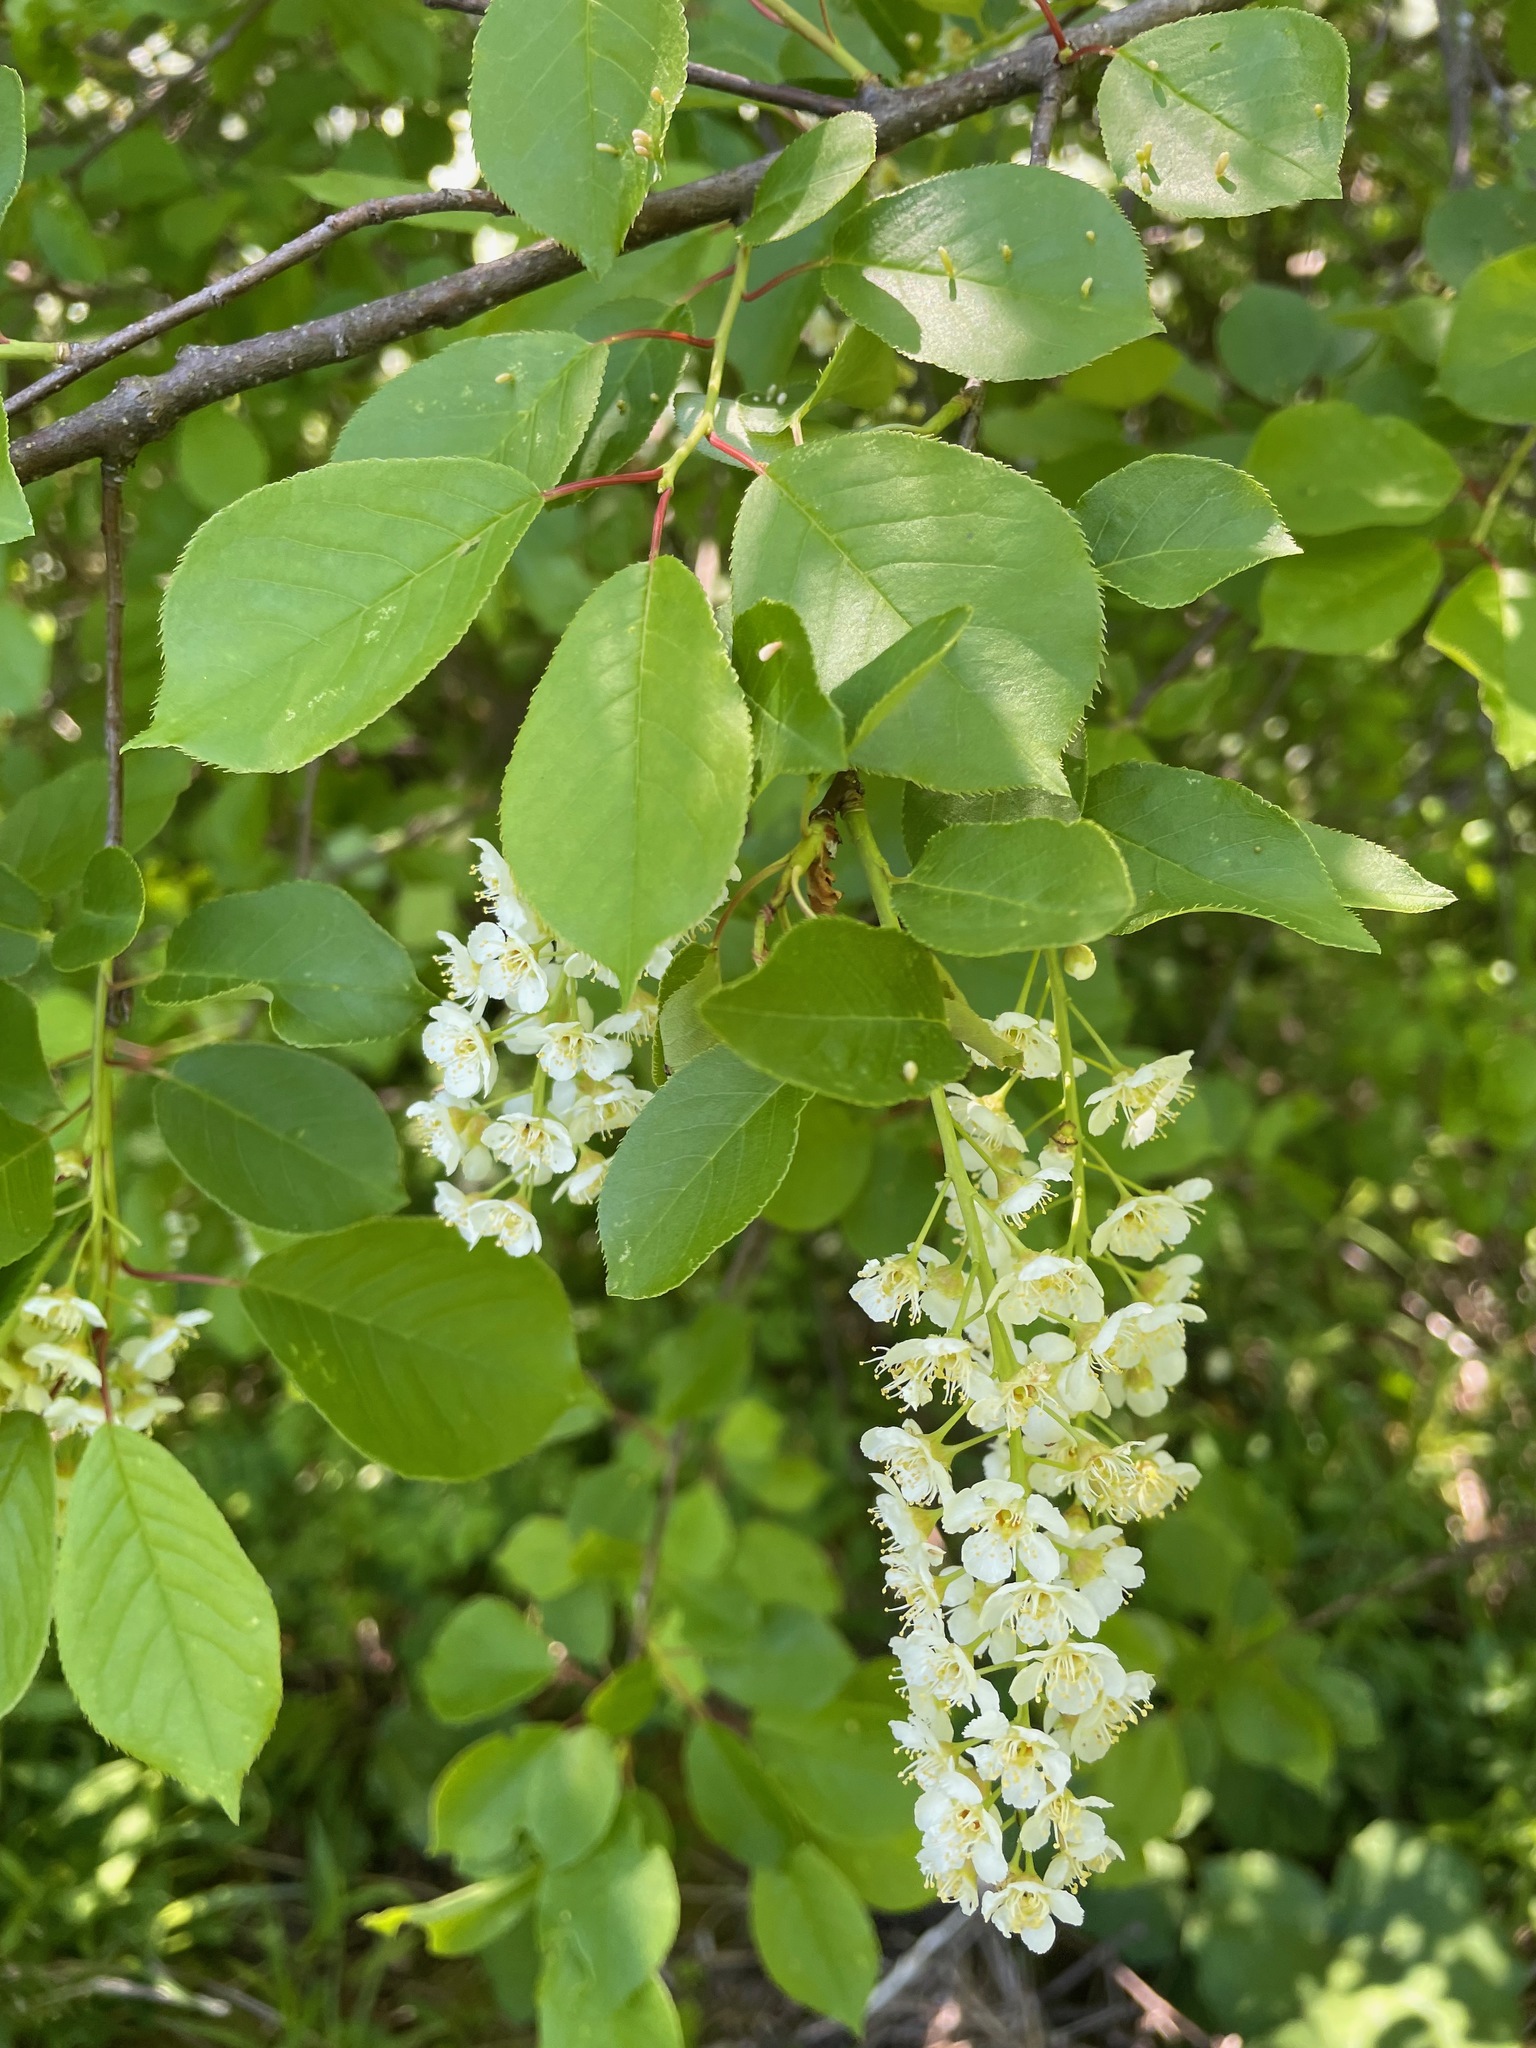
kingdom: Plantae
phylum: Tracheophyta
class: Magnoliopsida
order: Rosales
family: Rosaceae
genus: Prunus
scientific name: Prunus virginiana
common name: Chokecherry
